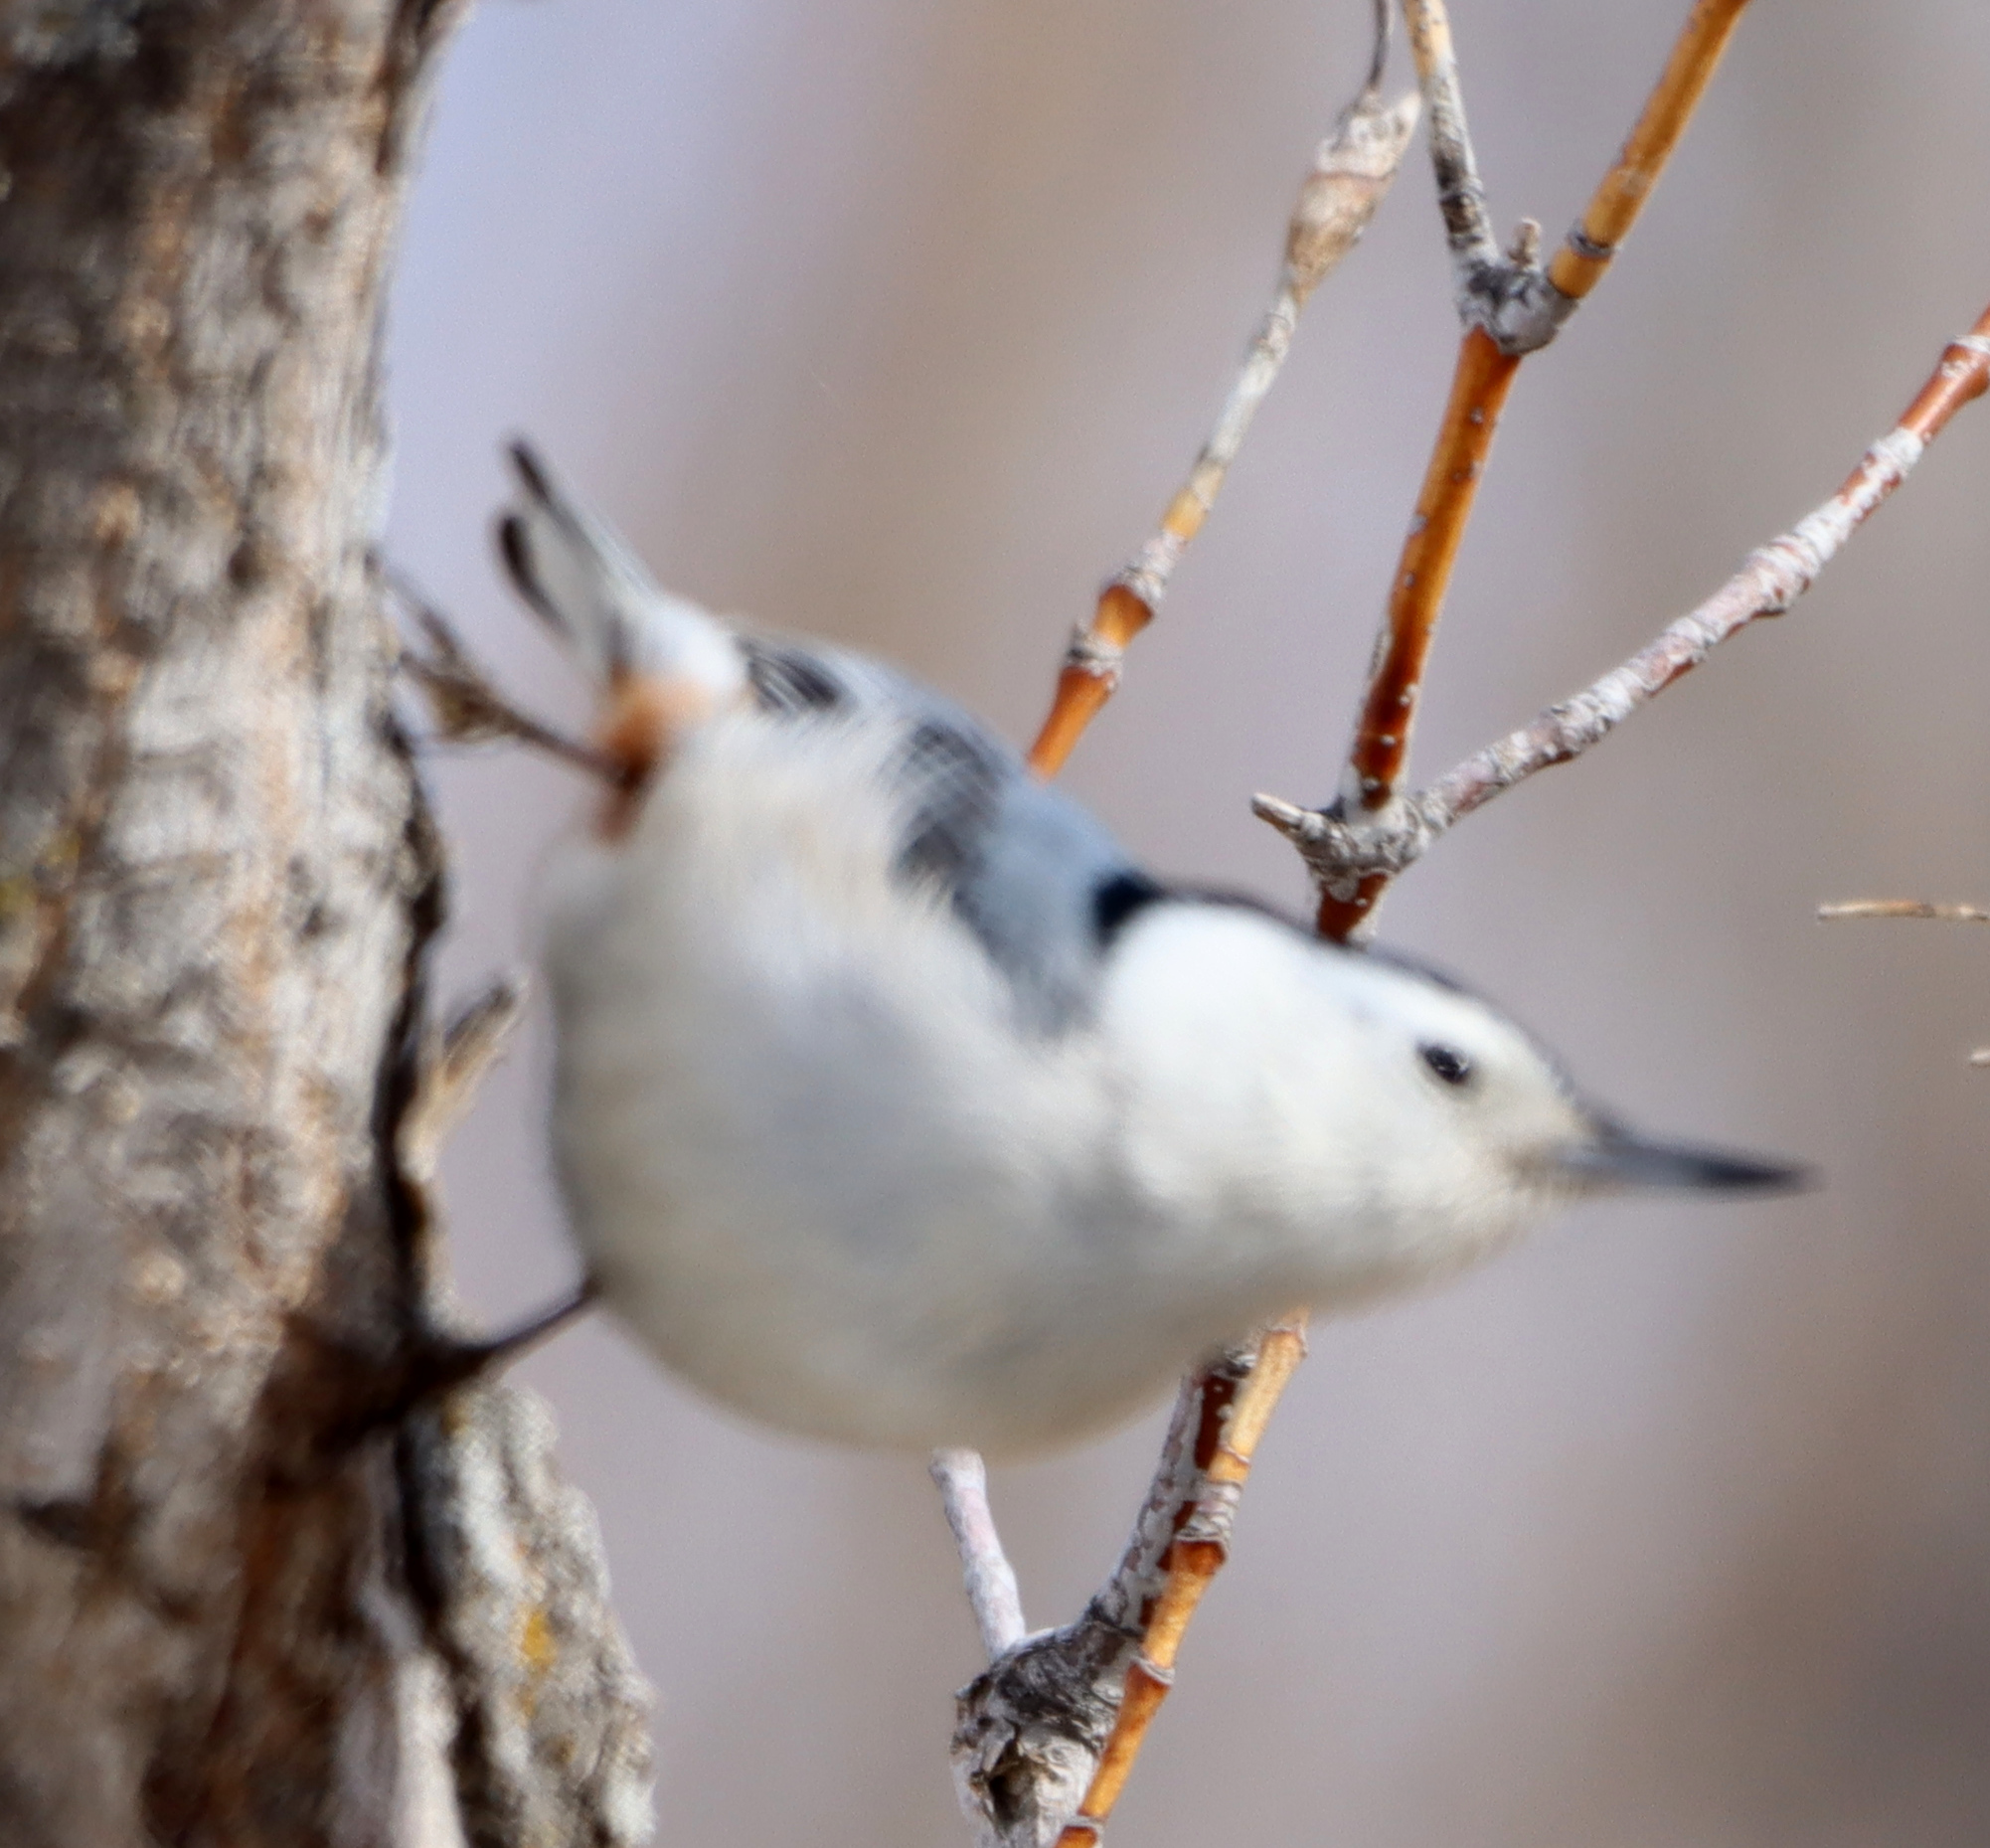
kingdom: Animalia
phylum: Chordata
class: Aves
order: Passeriformes
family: Sittidae
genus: Sitta
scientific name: Sitta carolinensis
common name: White-breasted nuthatch
